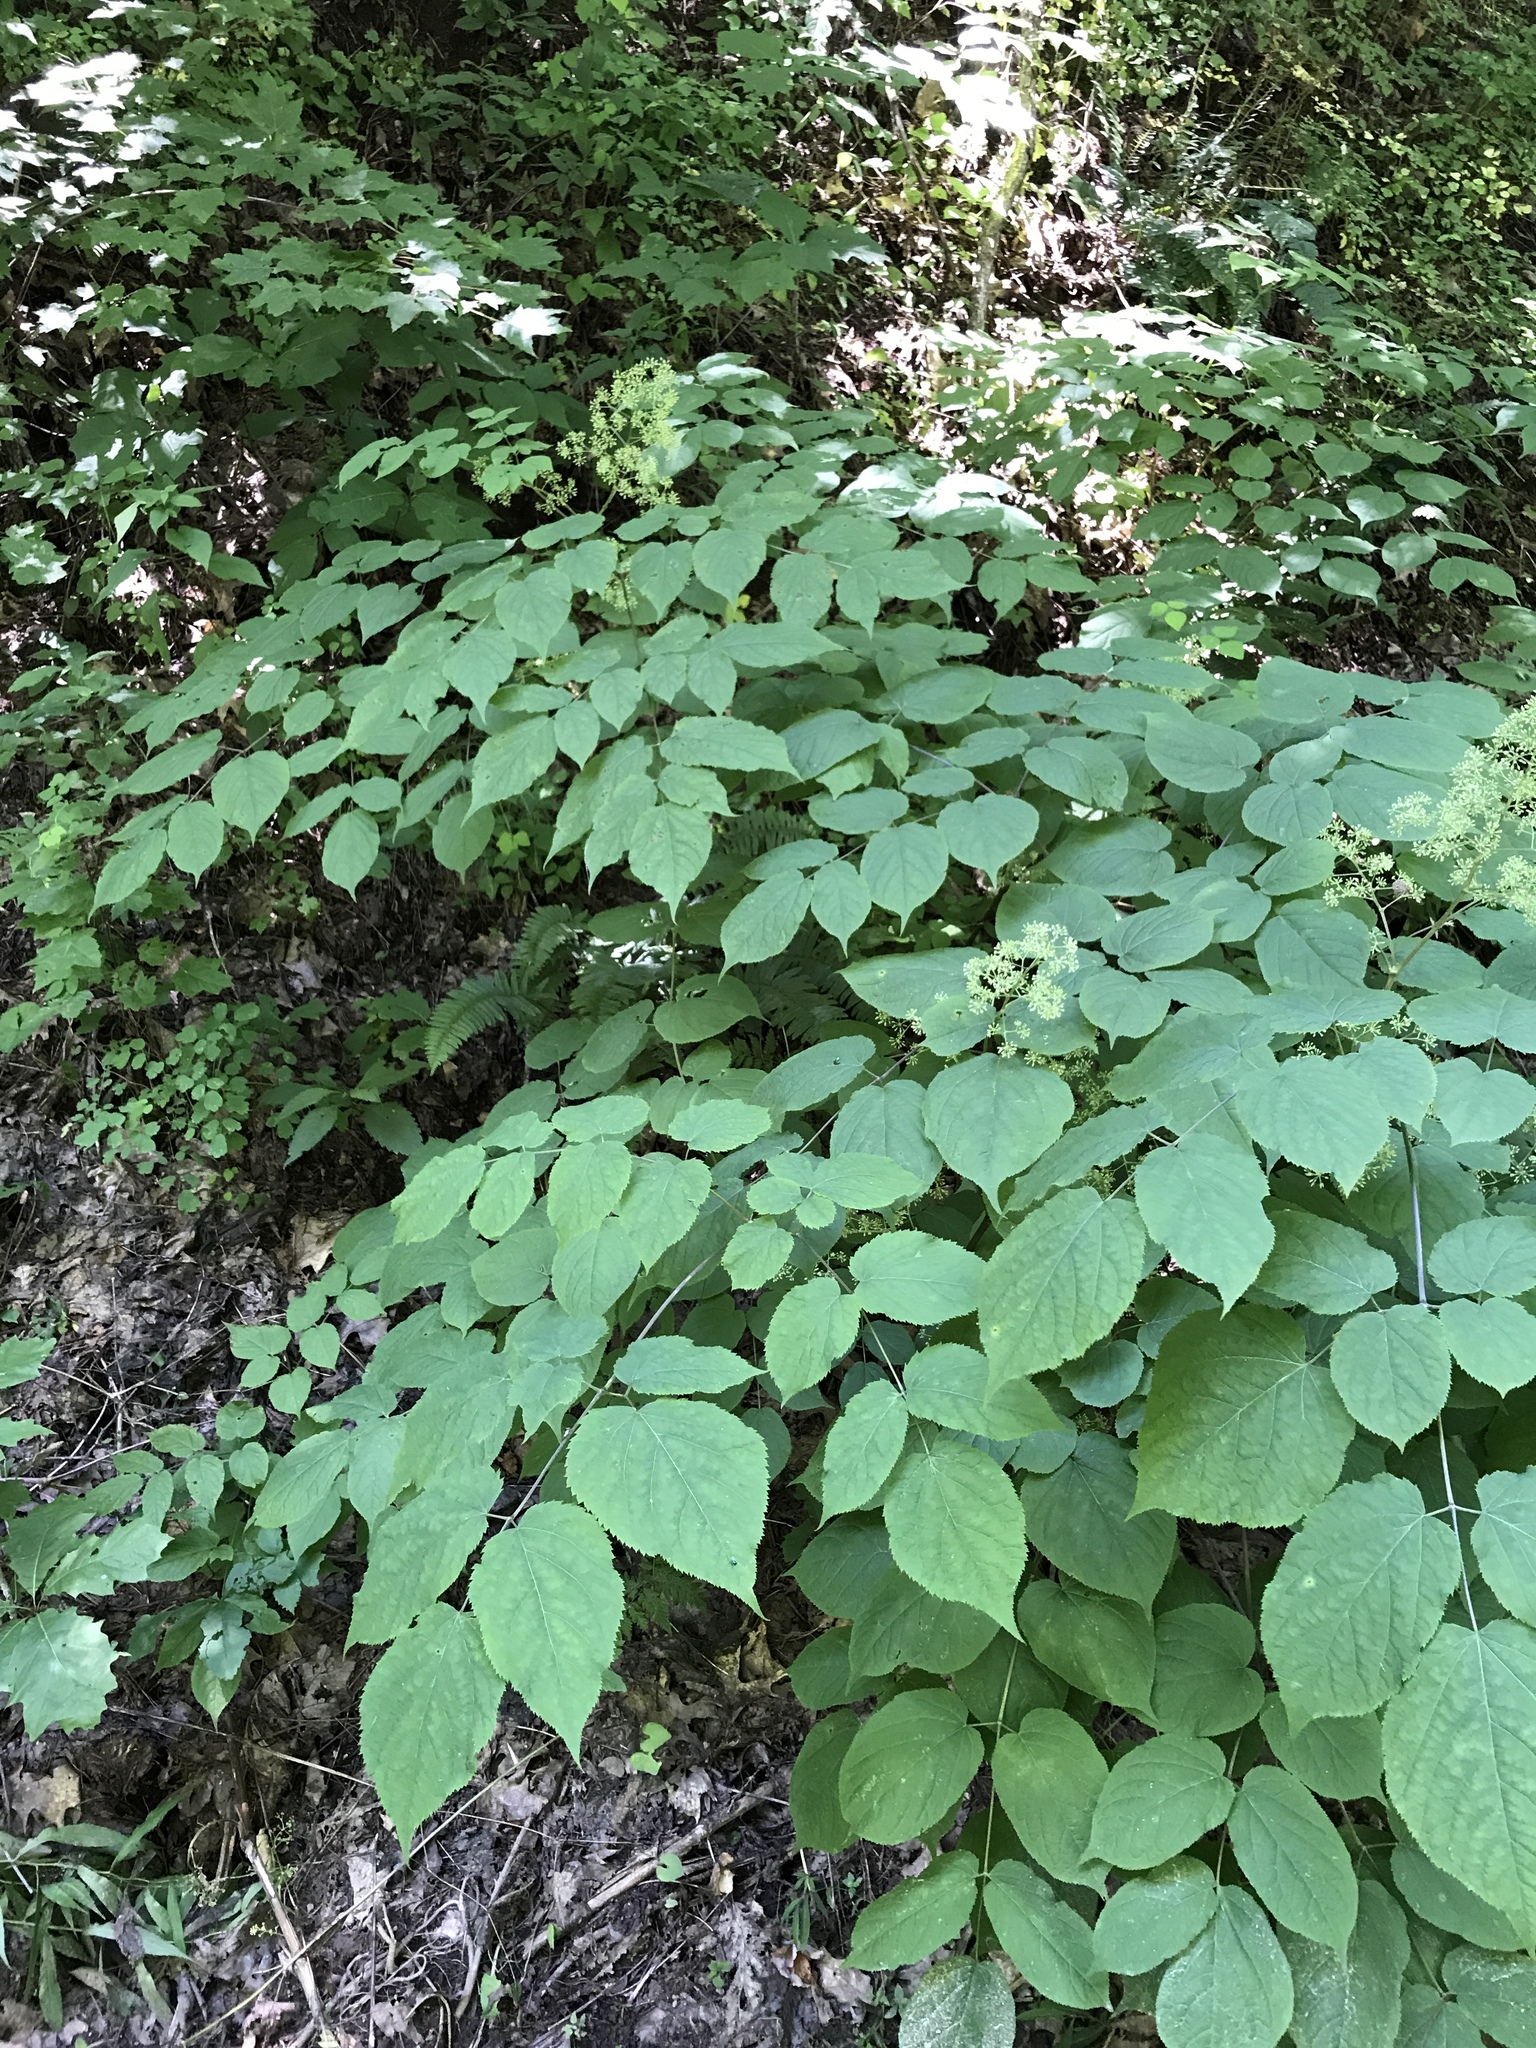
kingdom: Plantae
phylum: Tracheophyta
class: Magnoliopsida
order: Apiales
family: Araliaceae
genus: Aralia
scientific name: Aralia racemosa
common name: American-spikenard
